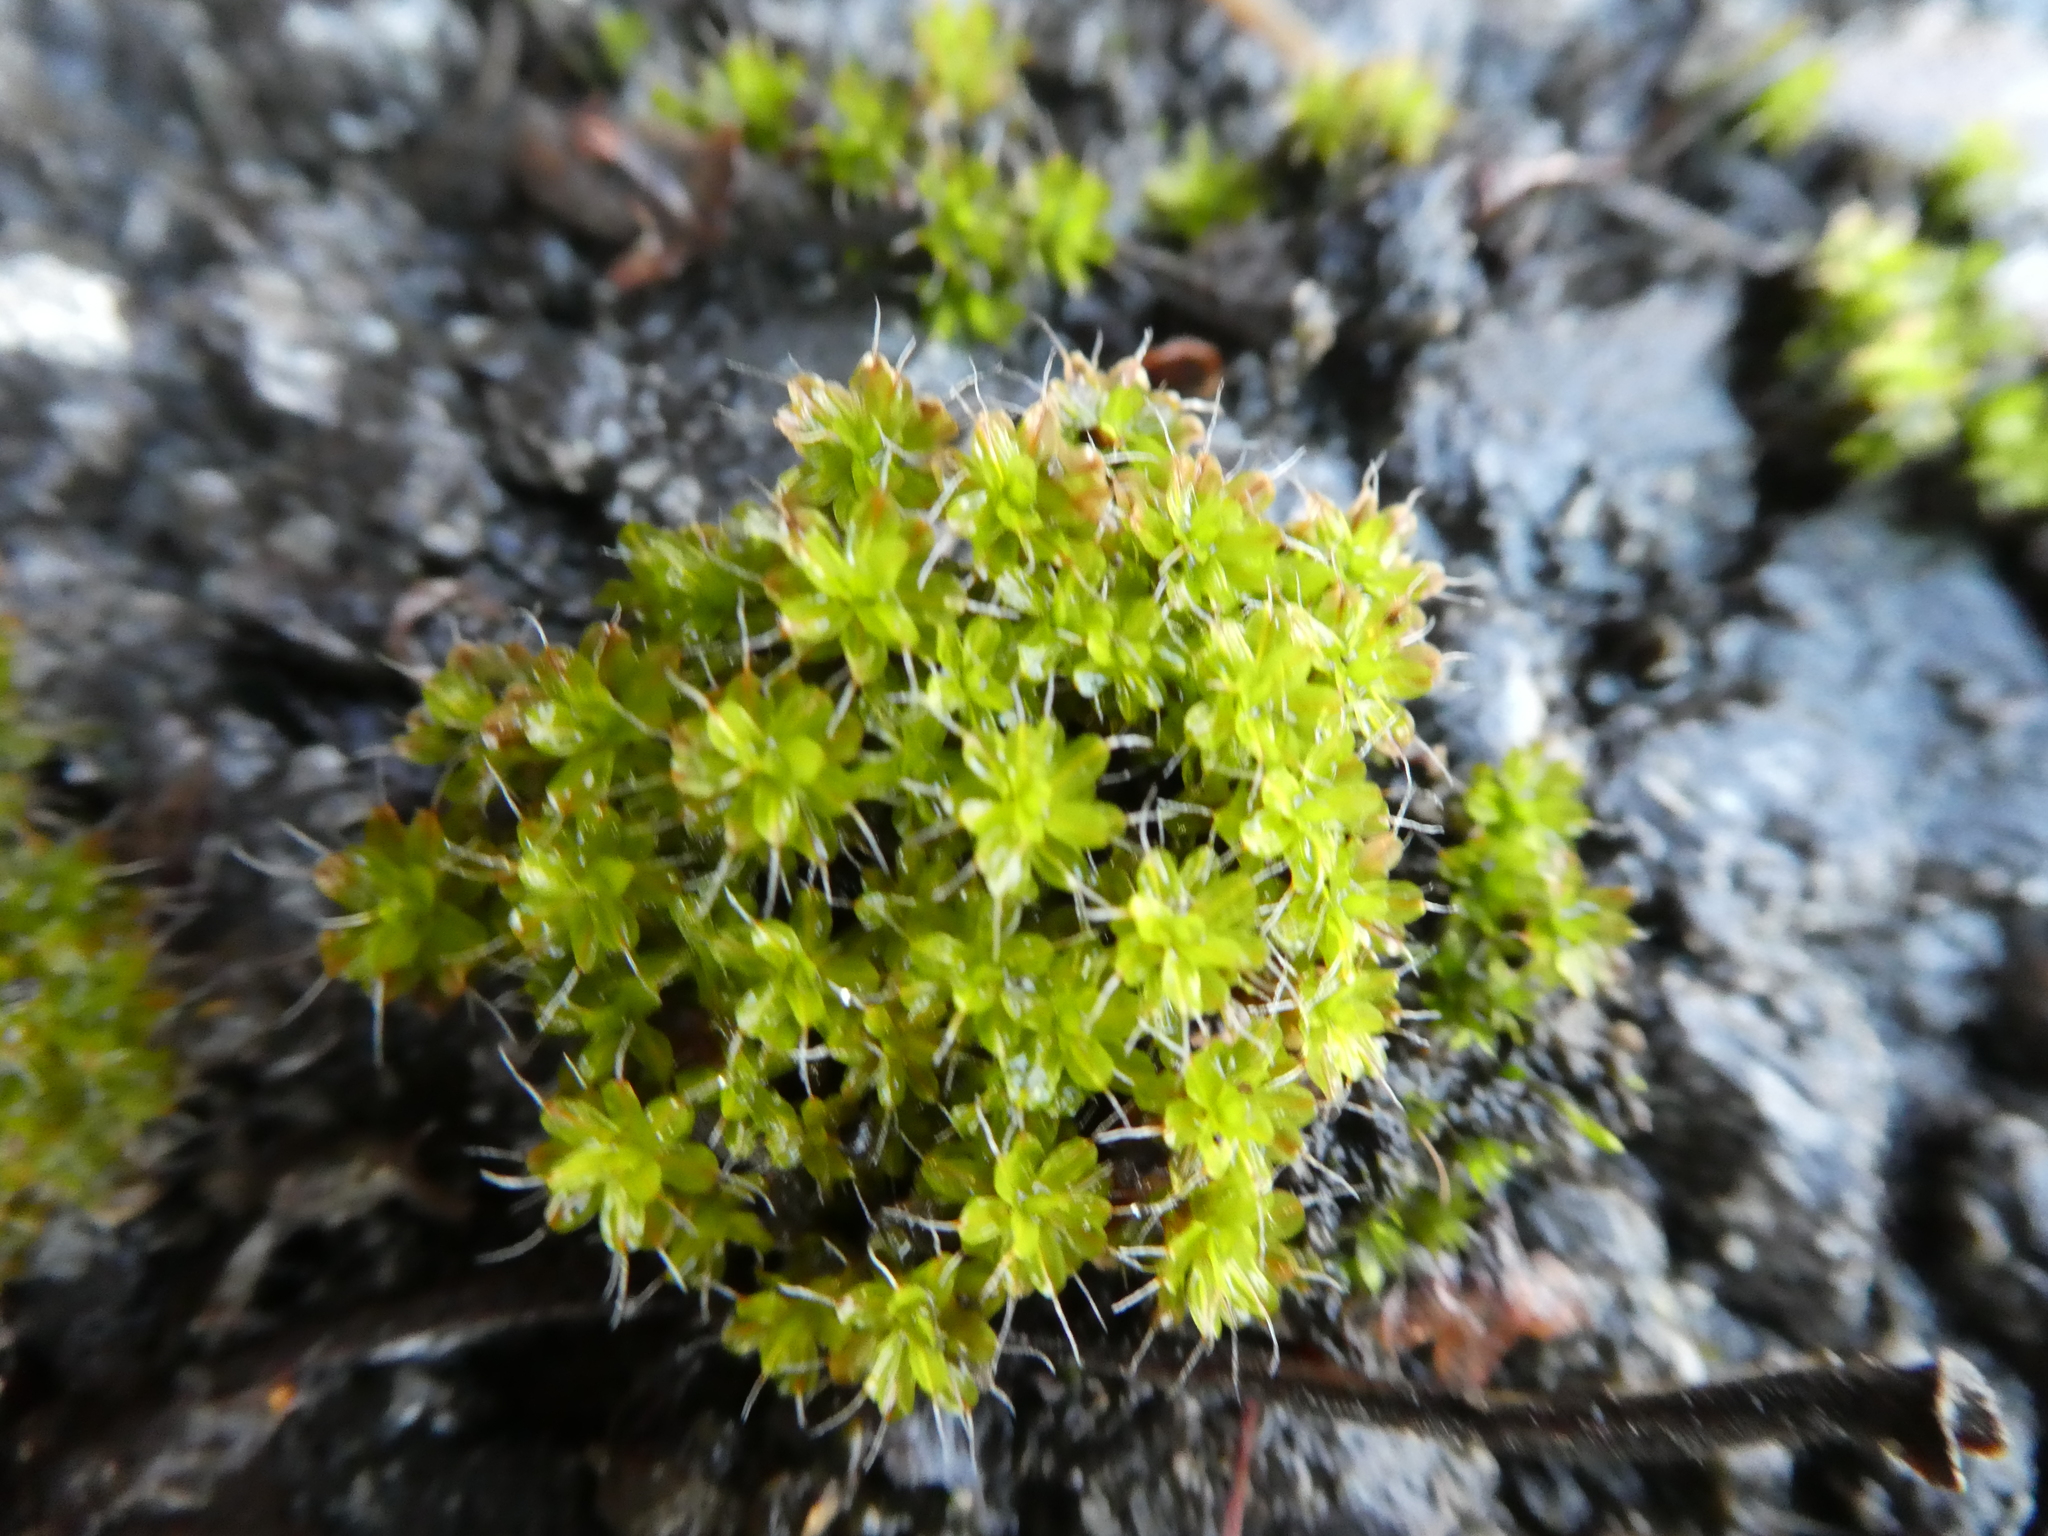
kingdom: Plantae
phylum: Bryophyta
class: Bryopsida
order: Pottiales
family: Pottiaceae
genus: Syntrichia
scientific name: Syntrichia montana
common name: Intermediate screw-moss
